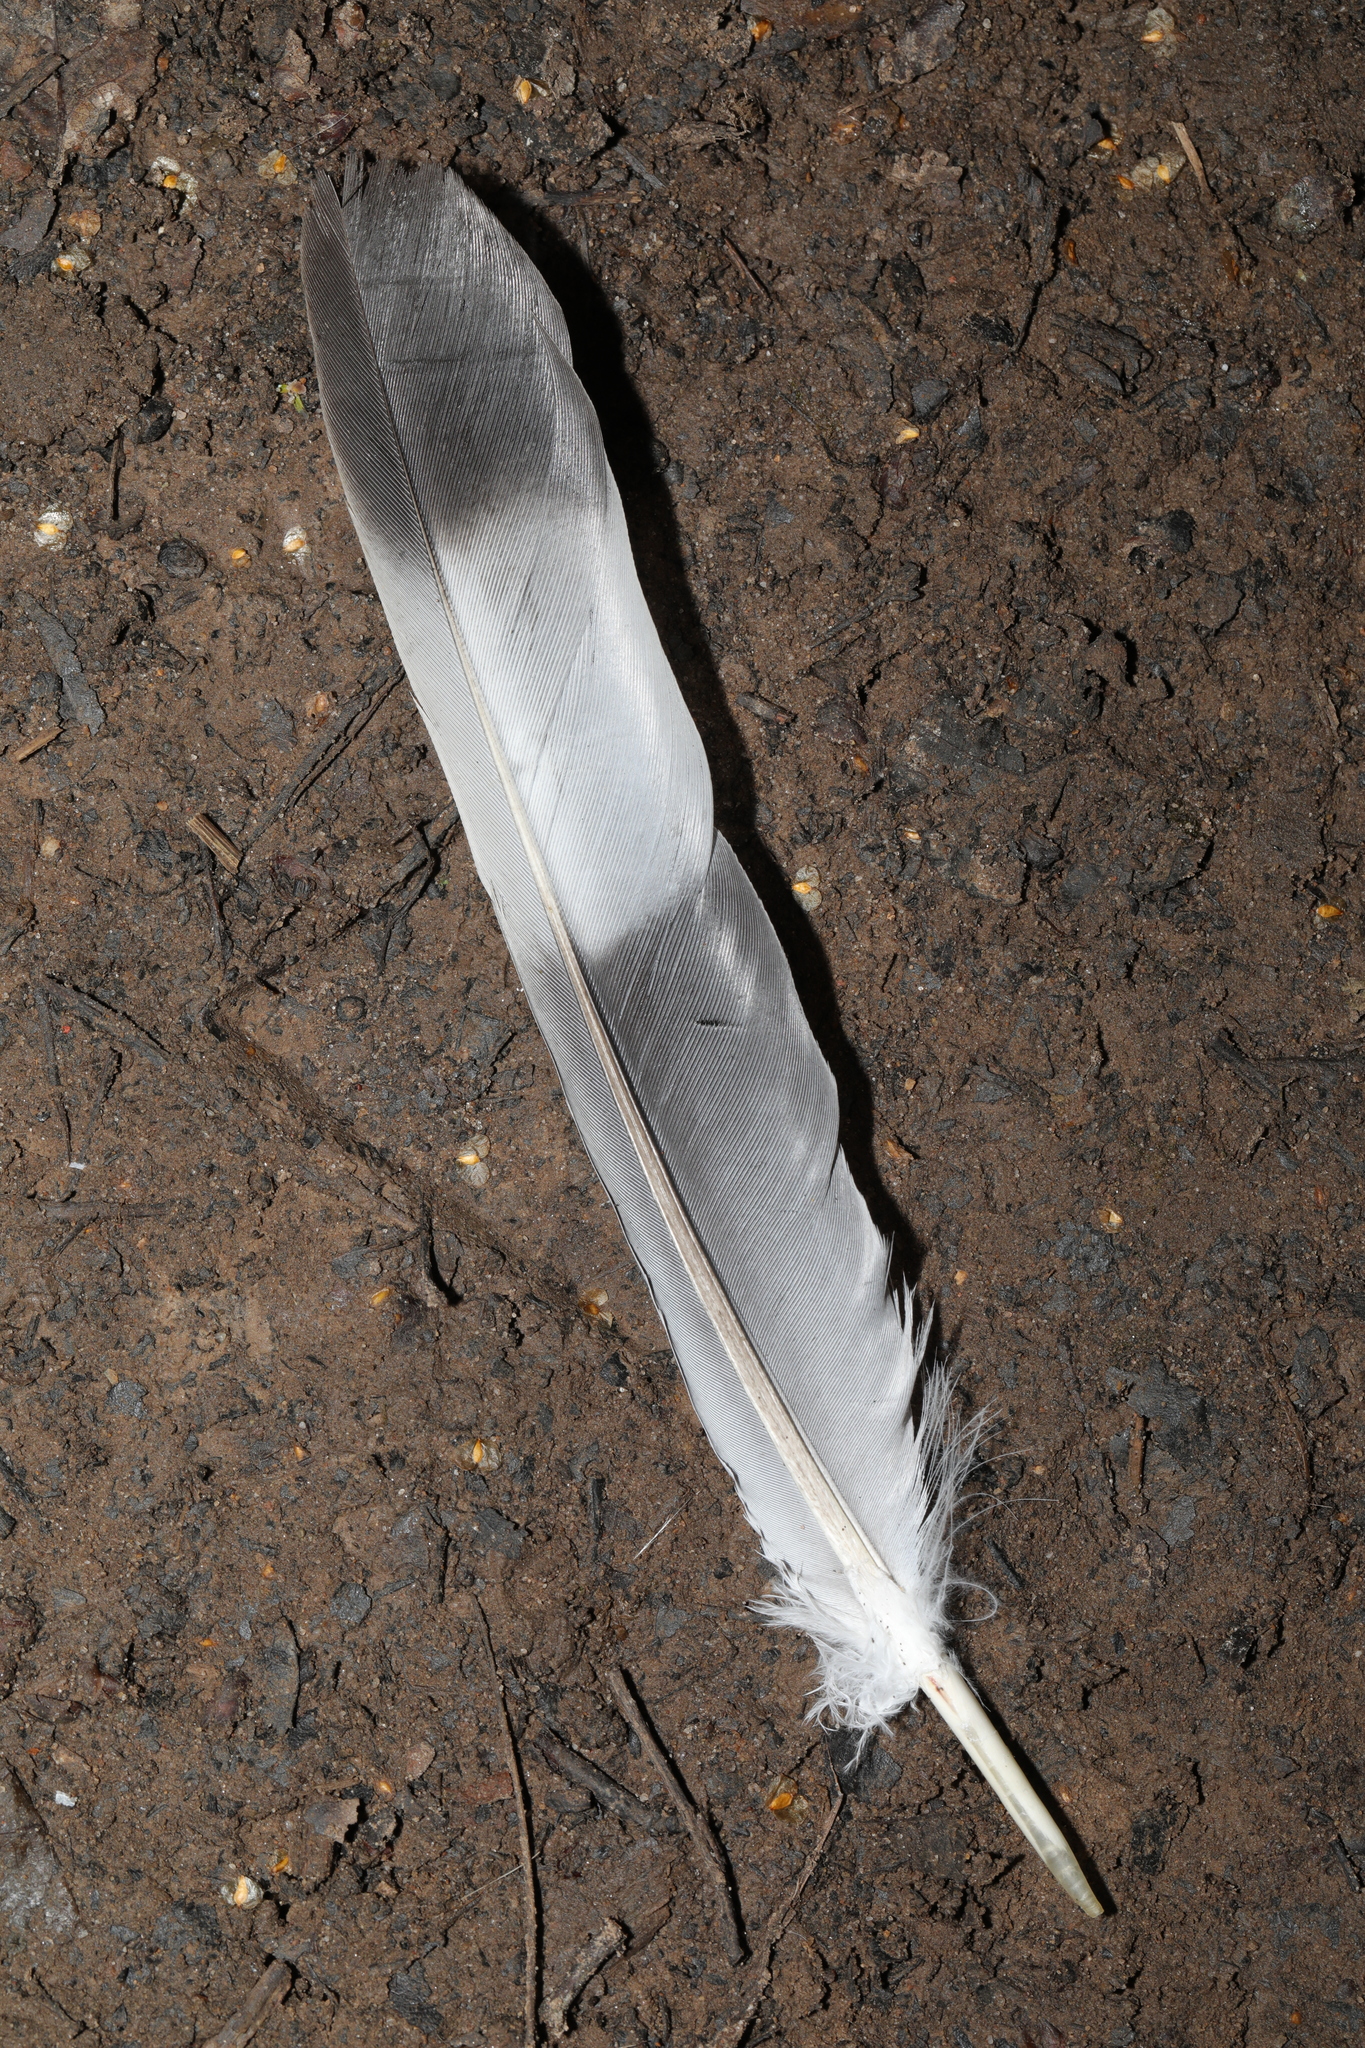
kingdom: Animalia
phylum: Chordata
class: Aves
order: Columbiformes
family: Columbidae
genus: Columba
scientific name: Columba palumbus
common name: Common wood pigeon
